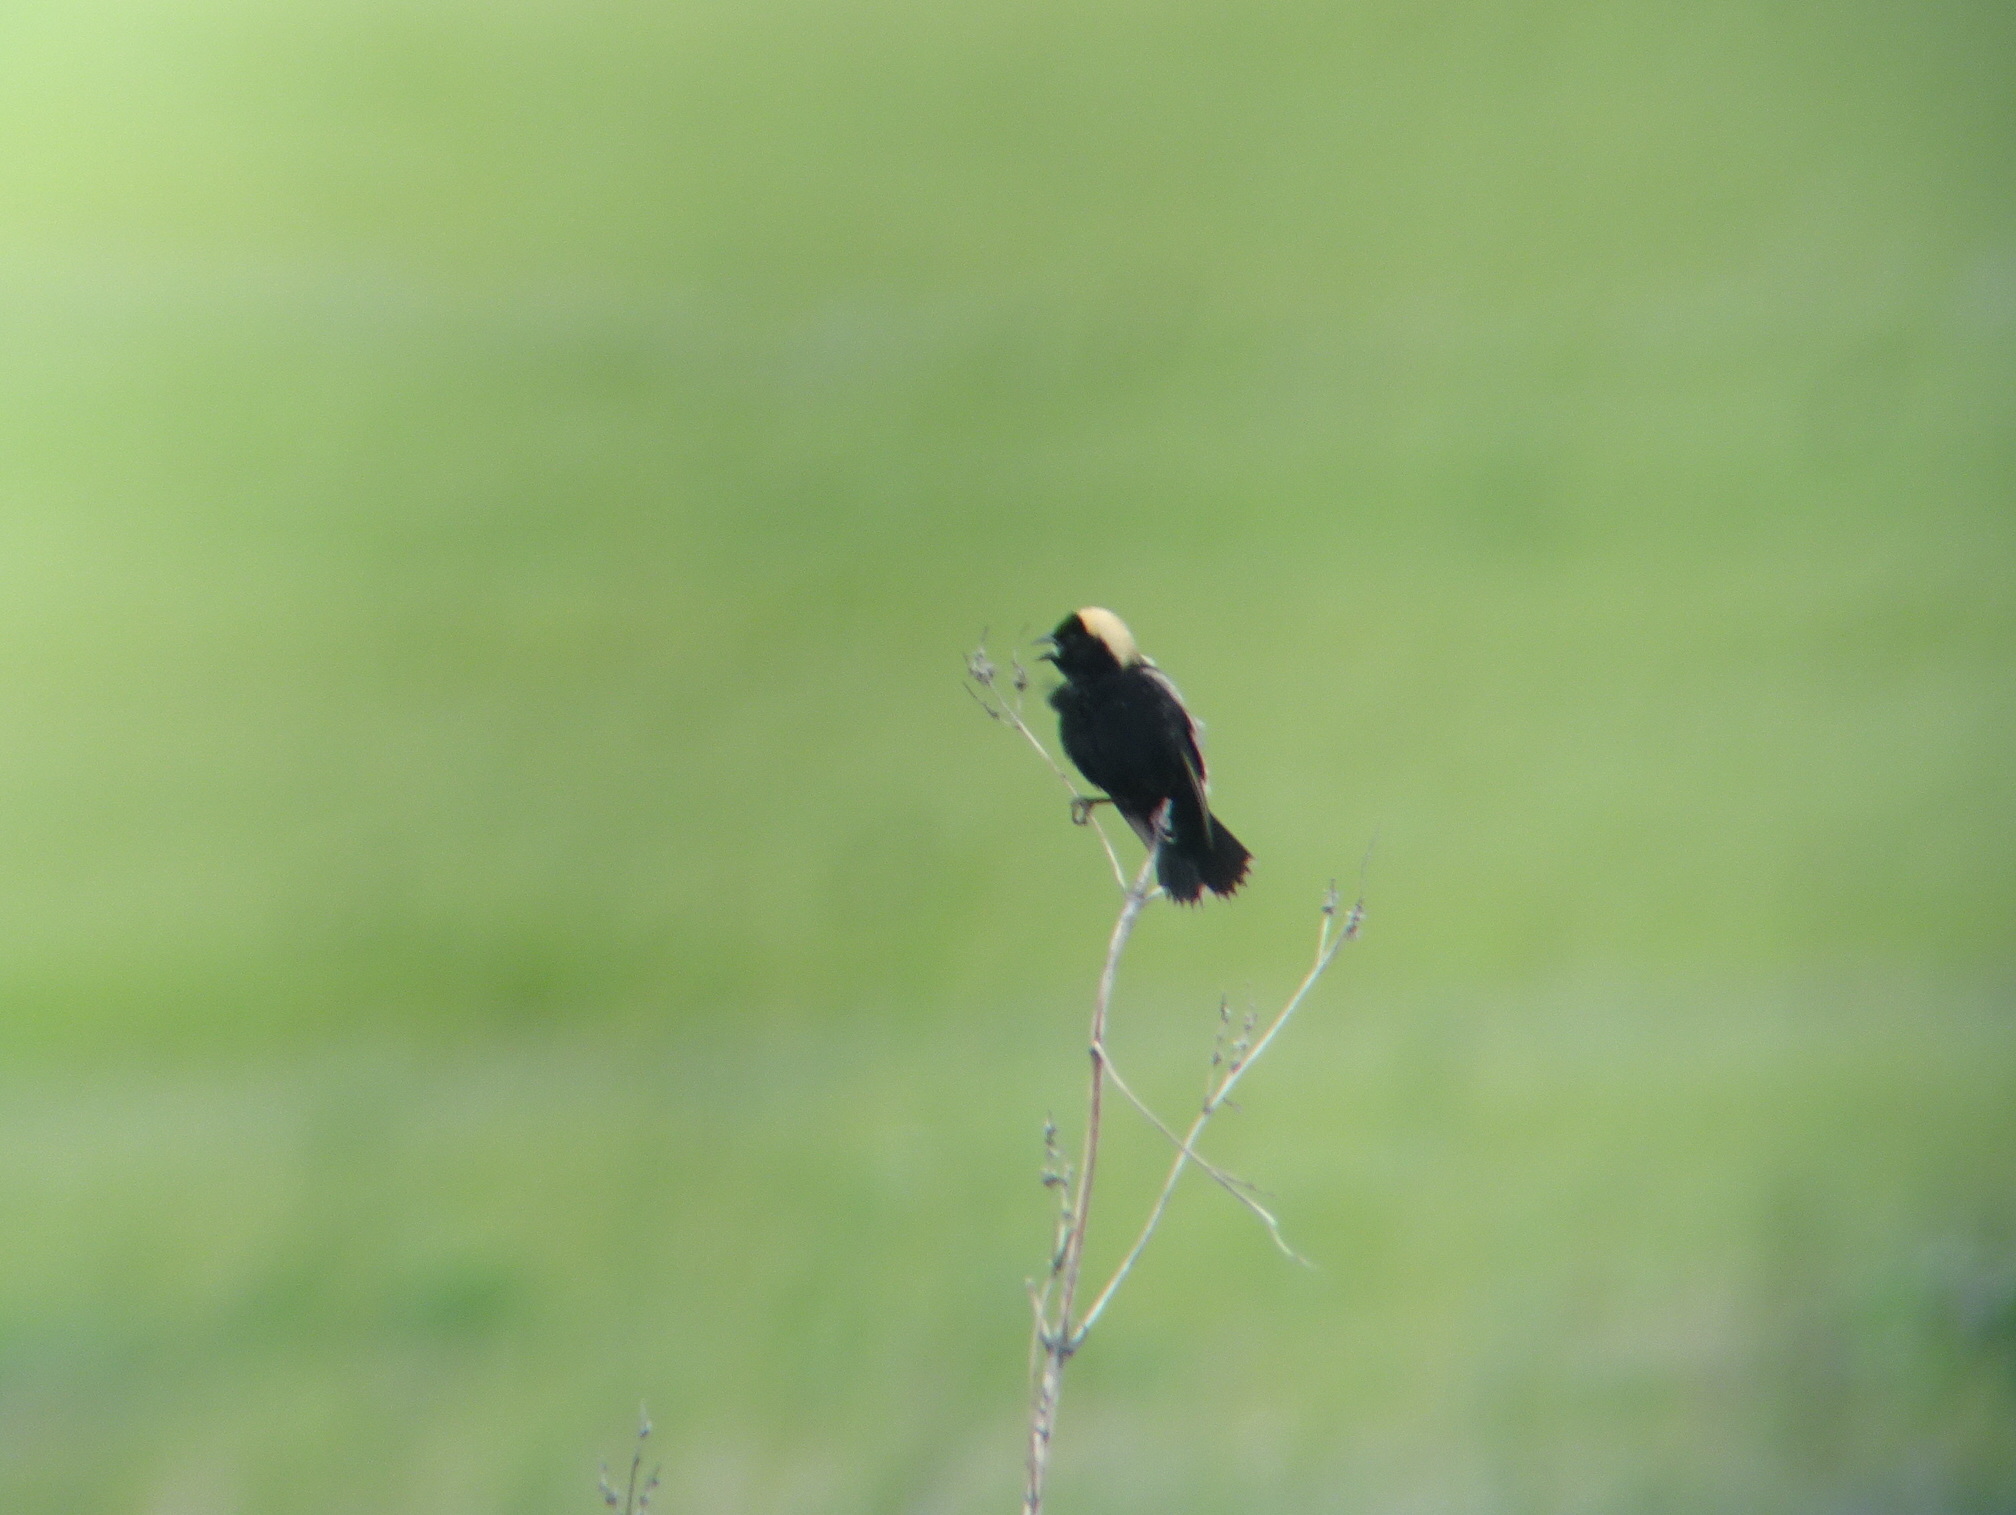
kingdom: Animalia
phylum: Chordata
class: Aves
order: Passeriformes
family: Icteridae
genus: Dolichonyx
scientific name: Dolichonyx oryzivorus
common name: Bobolink
